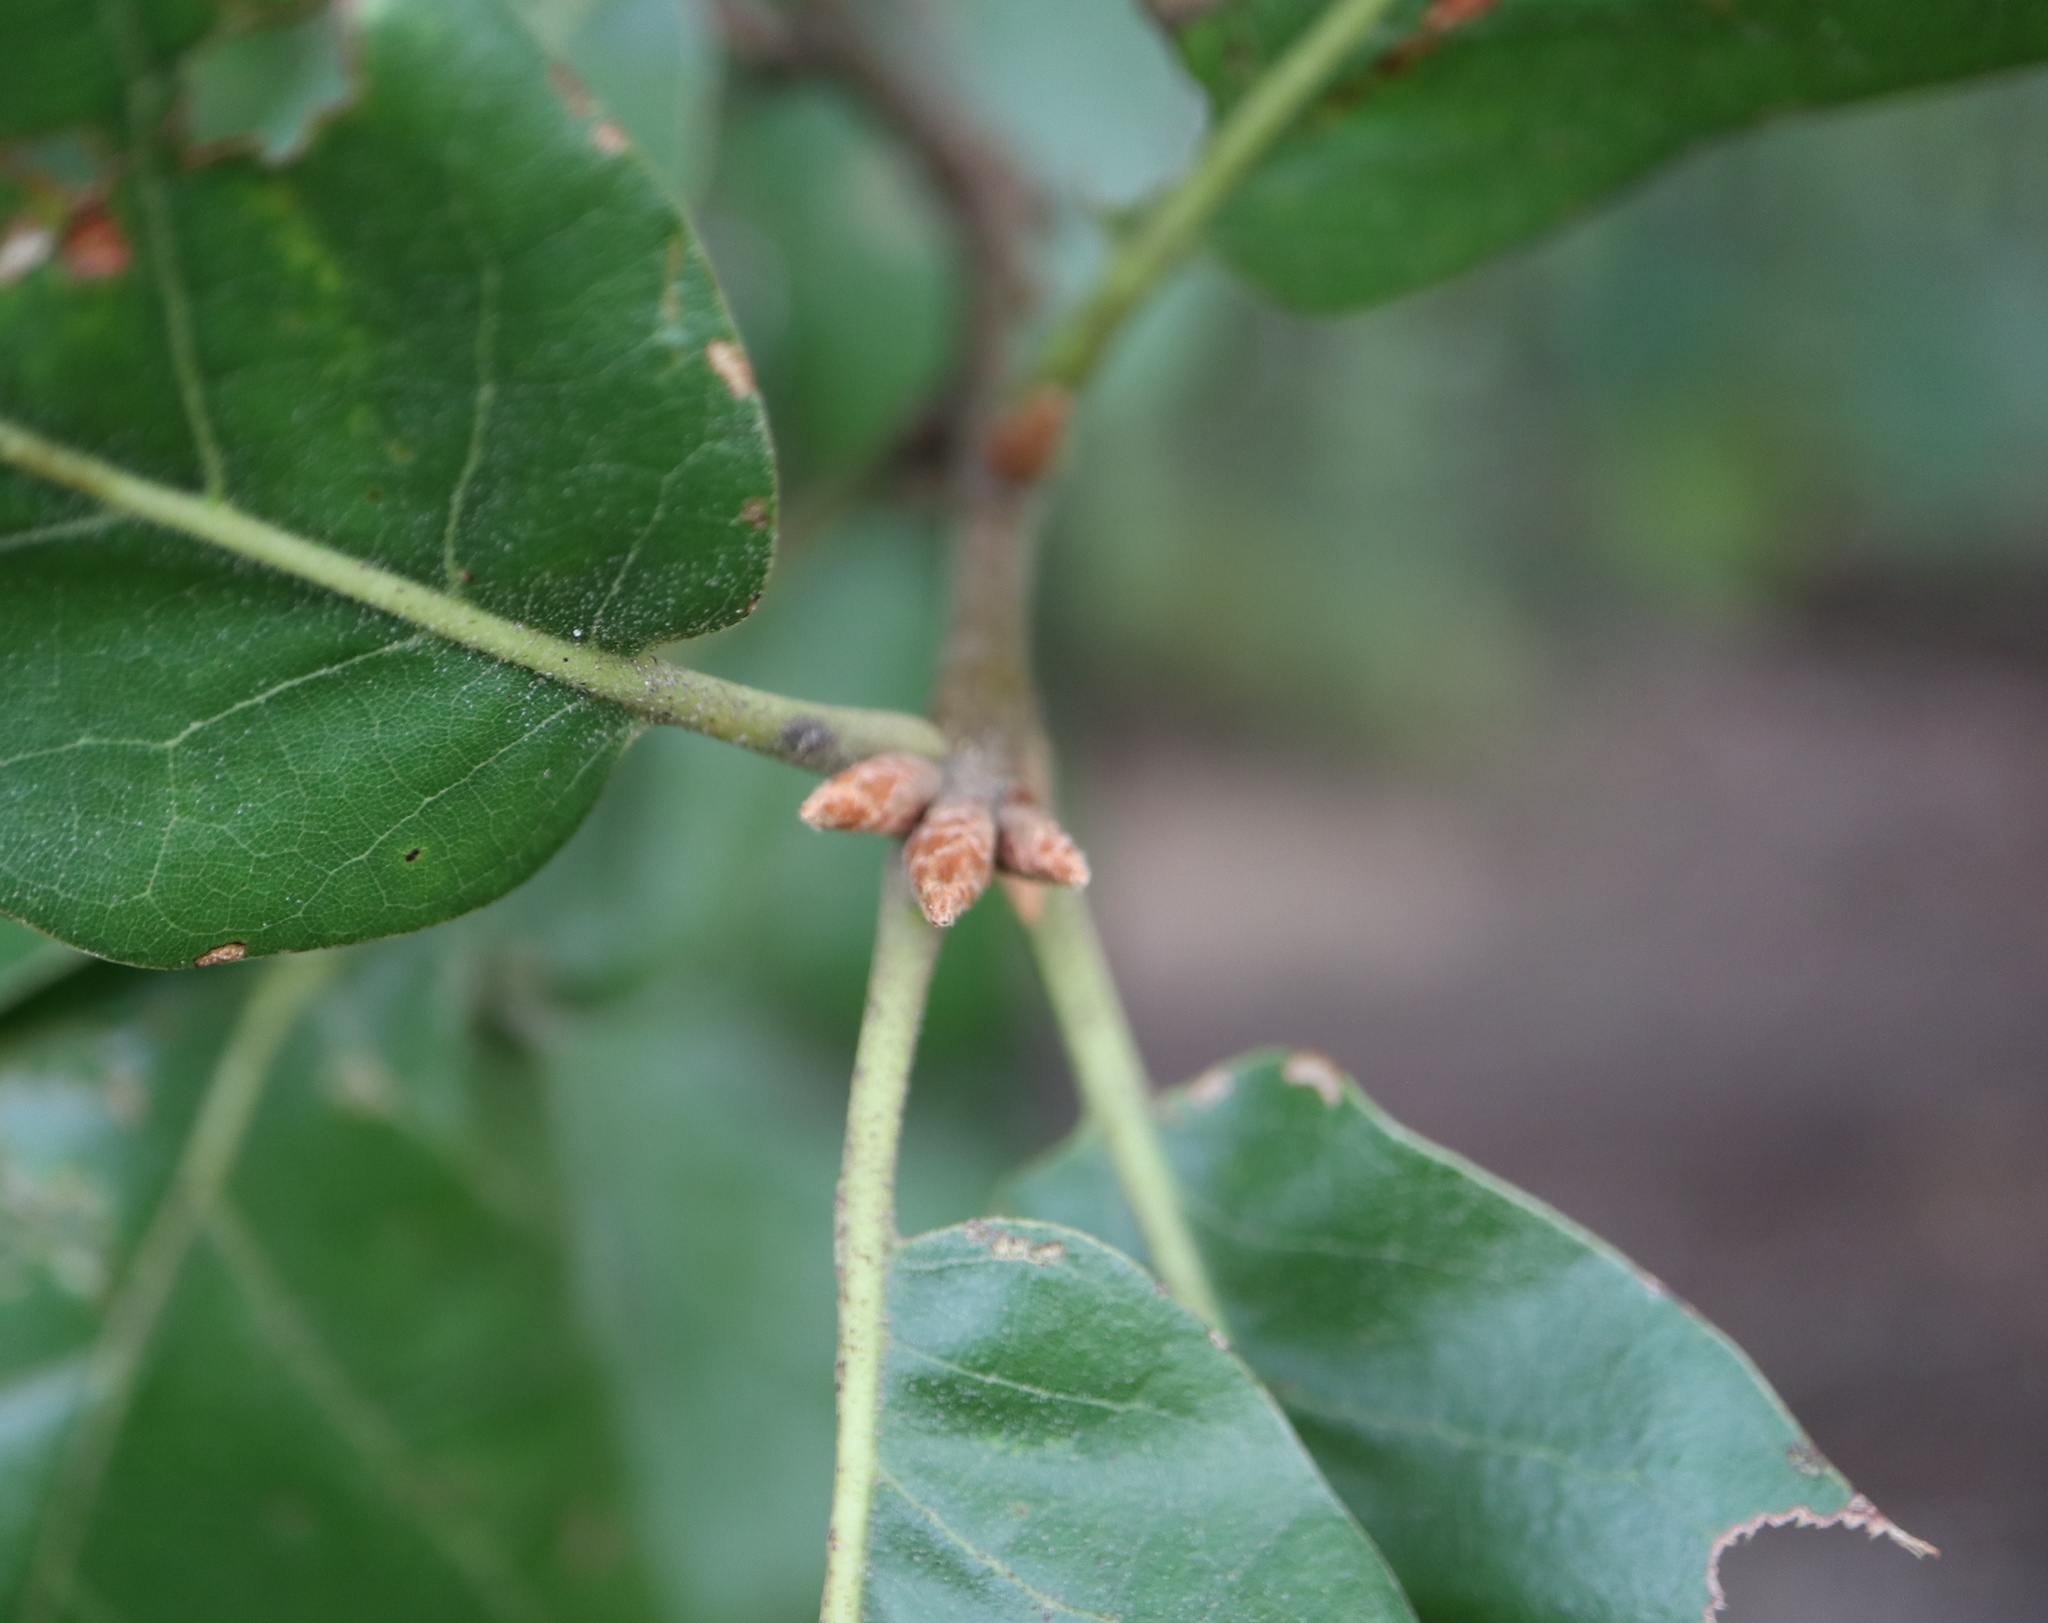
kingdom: Plantae
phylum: Tracheophyta
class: Magnoliopsida
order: Fagales
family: Fagaceae
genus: Quercus
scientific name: Quercus marilandica
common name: Blackjack oak
